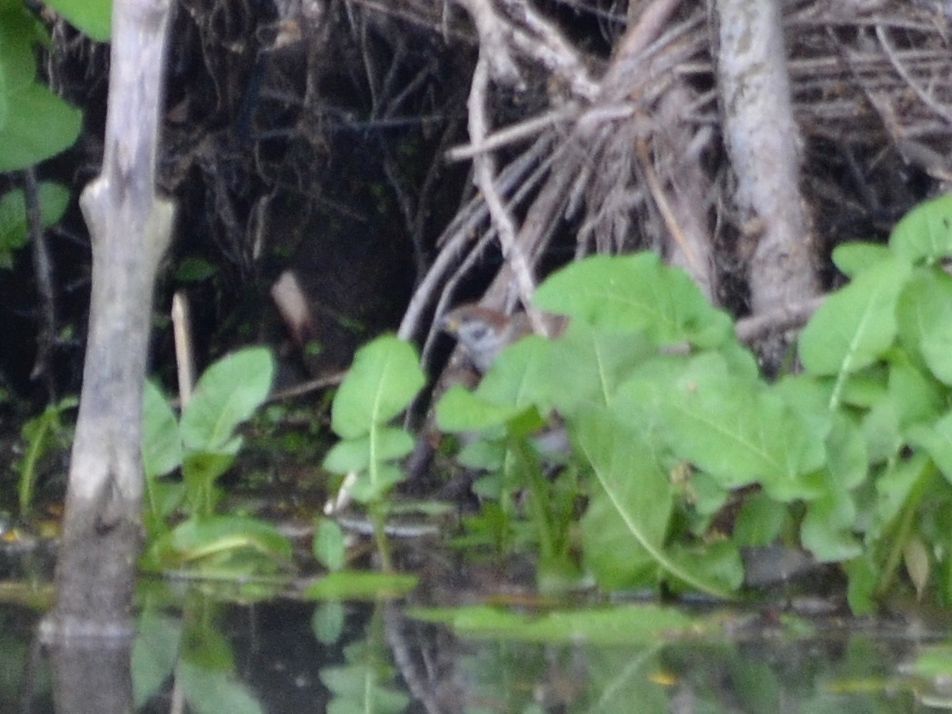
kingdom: Animalia
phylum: Chordata
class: Aves
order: Passeriformes
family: Passeridae
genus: Passer
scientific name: Passer montanus
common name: Eurasian tree sparrow
